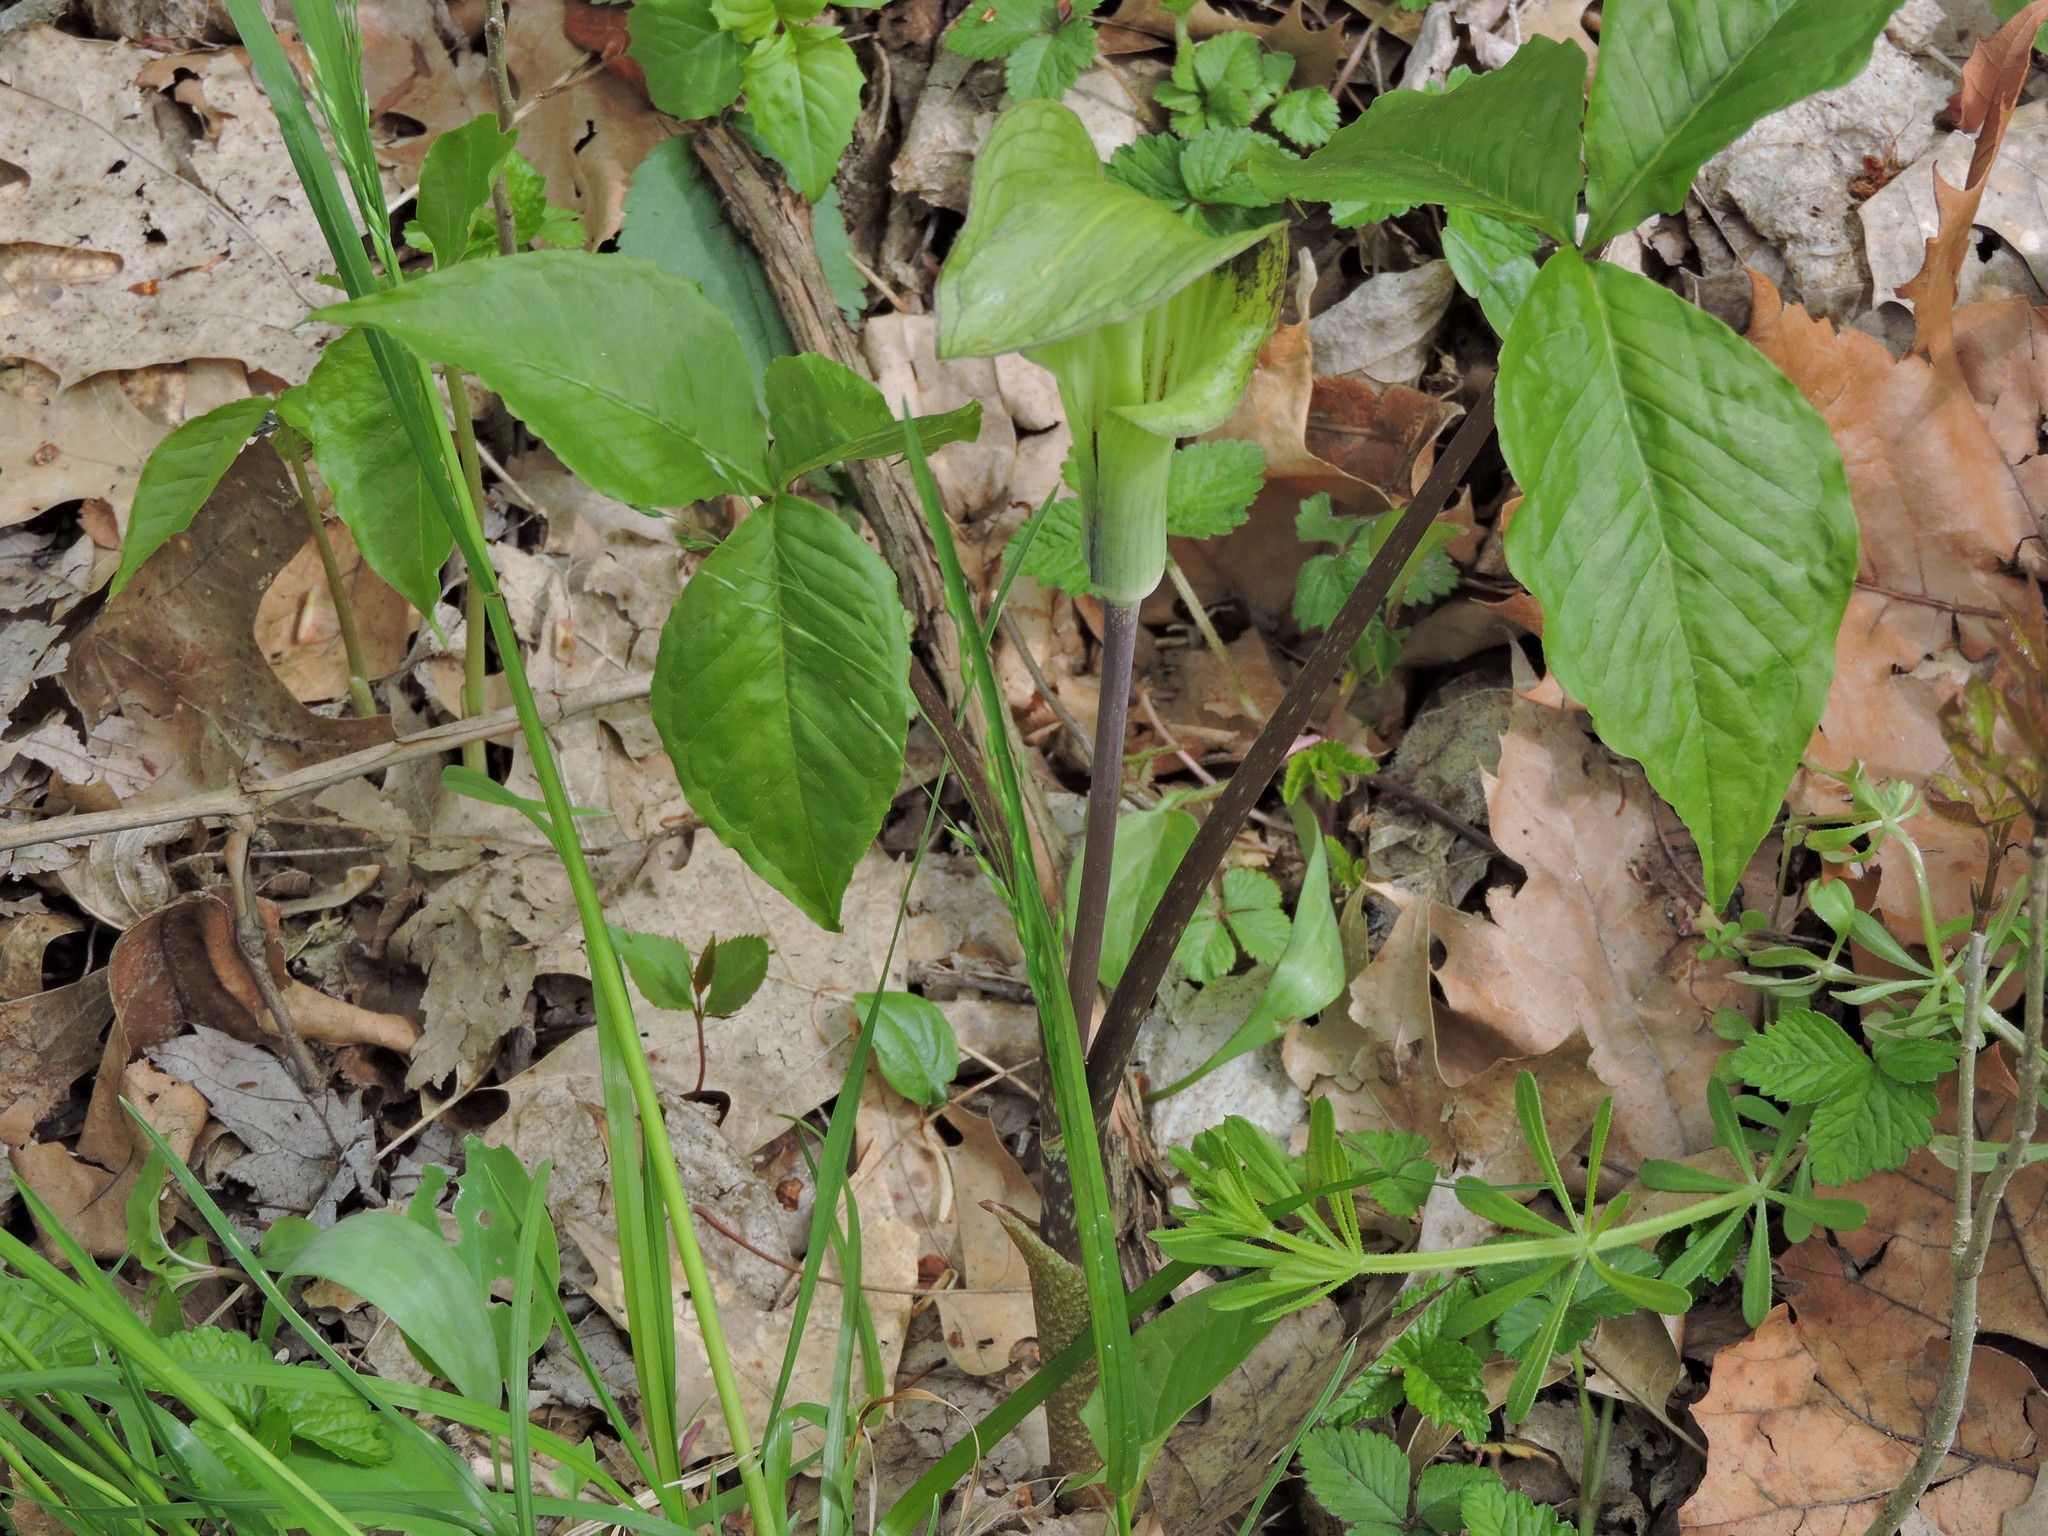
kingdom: Plantae
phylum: Tracheophyta
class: Liliopsida
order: Alismatales
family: Araceae
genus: Arisaema
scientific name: Arisaema triphyllum
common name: Jack-in-the-pulpit
